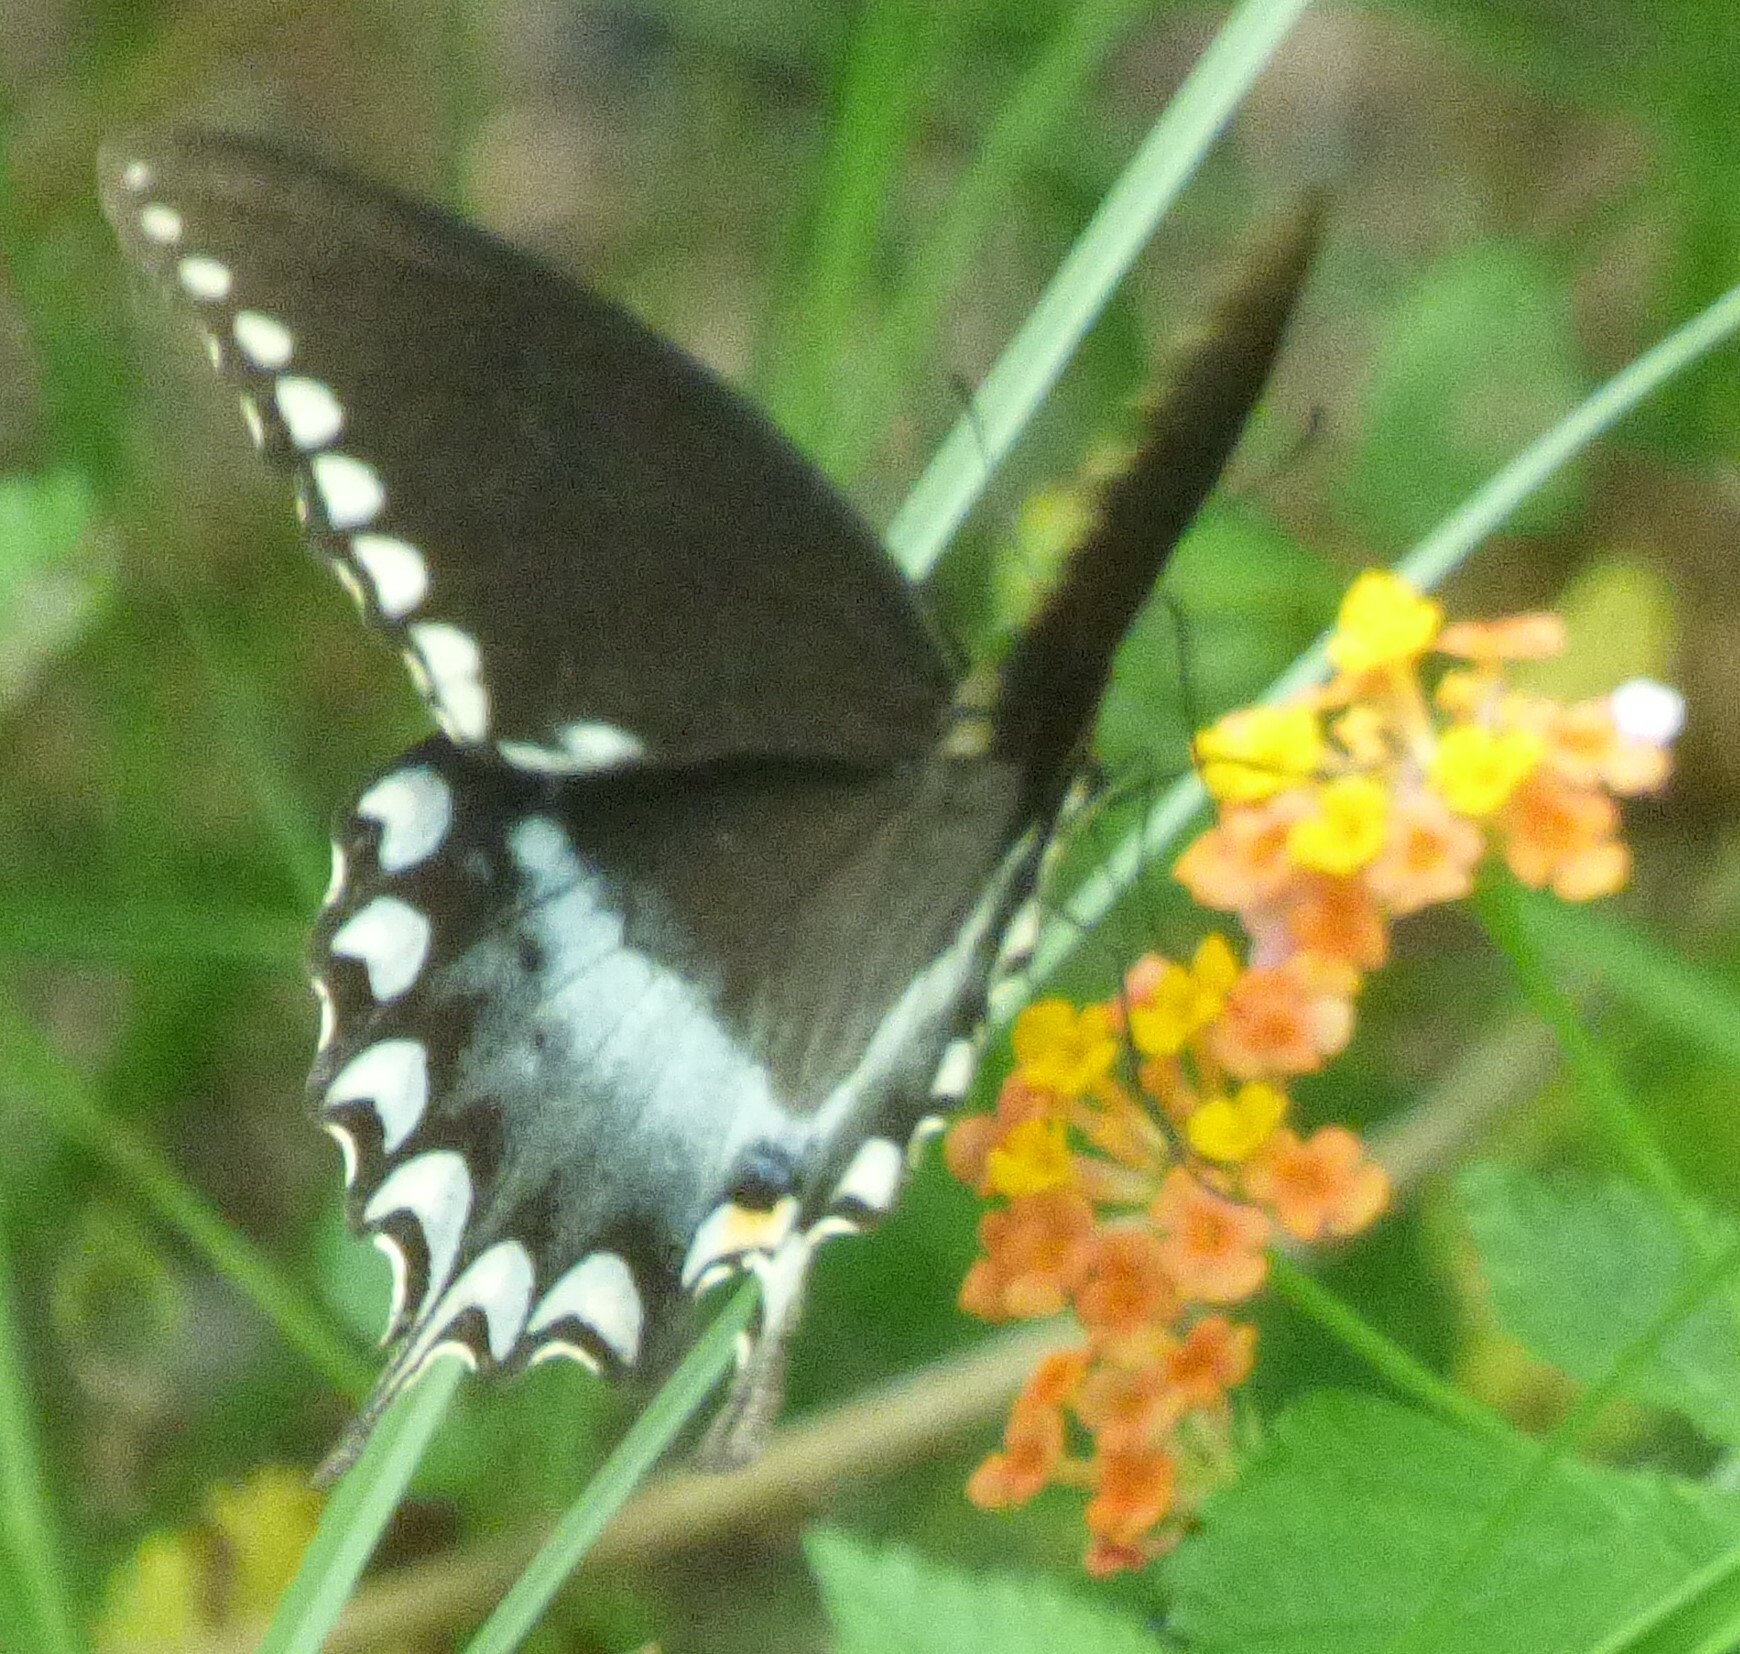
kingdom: Animalia
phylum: Arthropoda
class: Insecta
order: Lepidoptera
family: Papilionidae
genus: Papilio
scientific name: Papilio troilus
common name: Spicebush swallowtail
